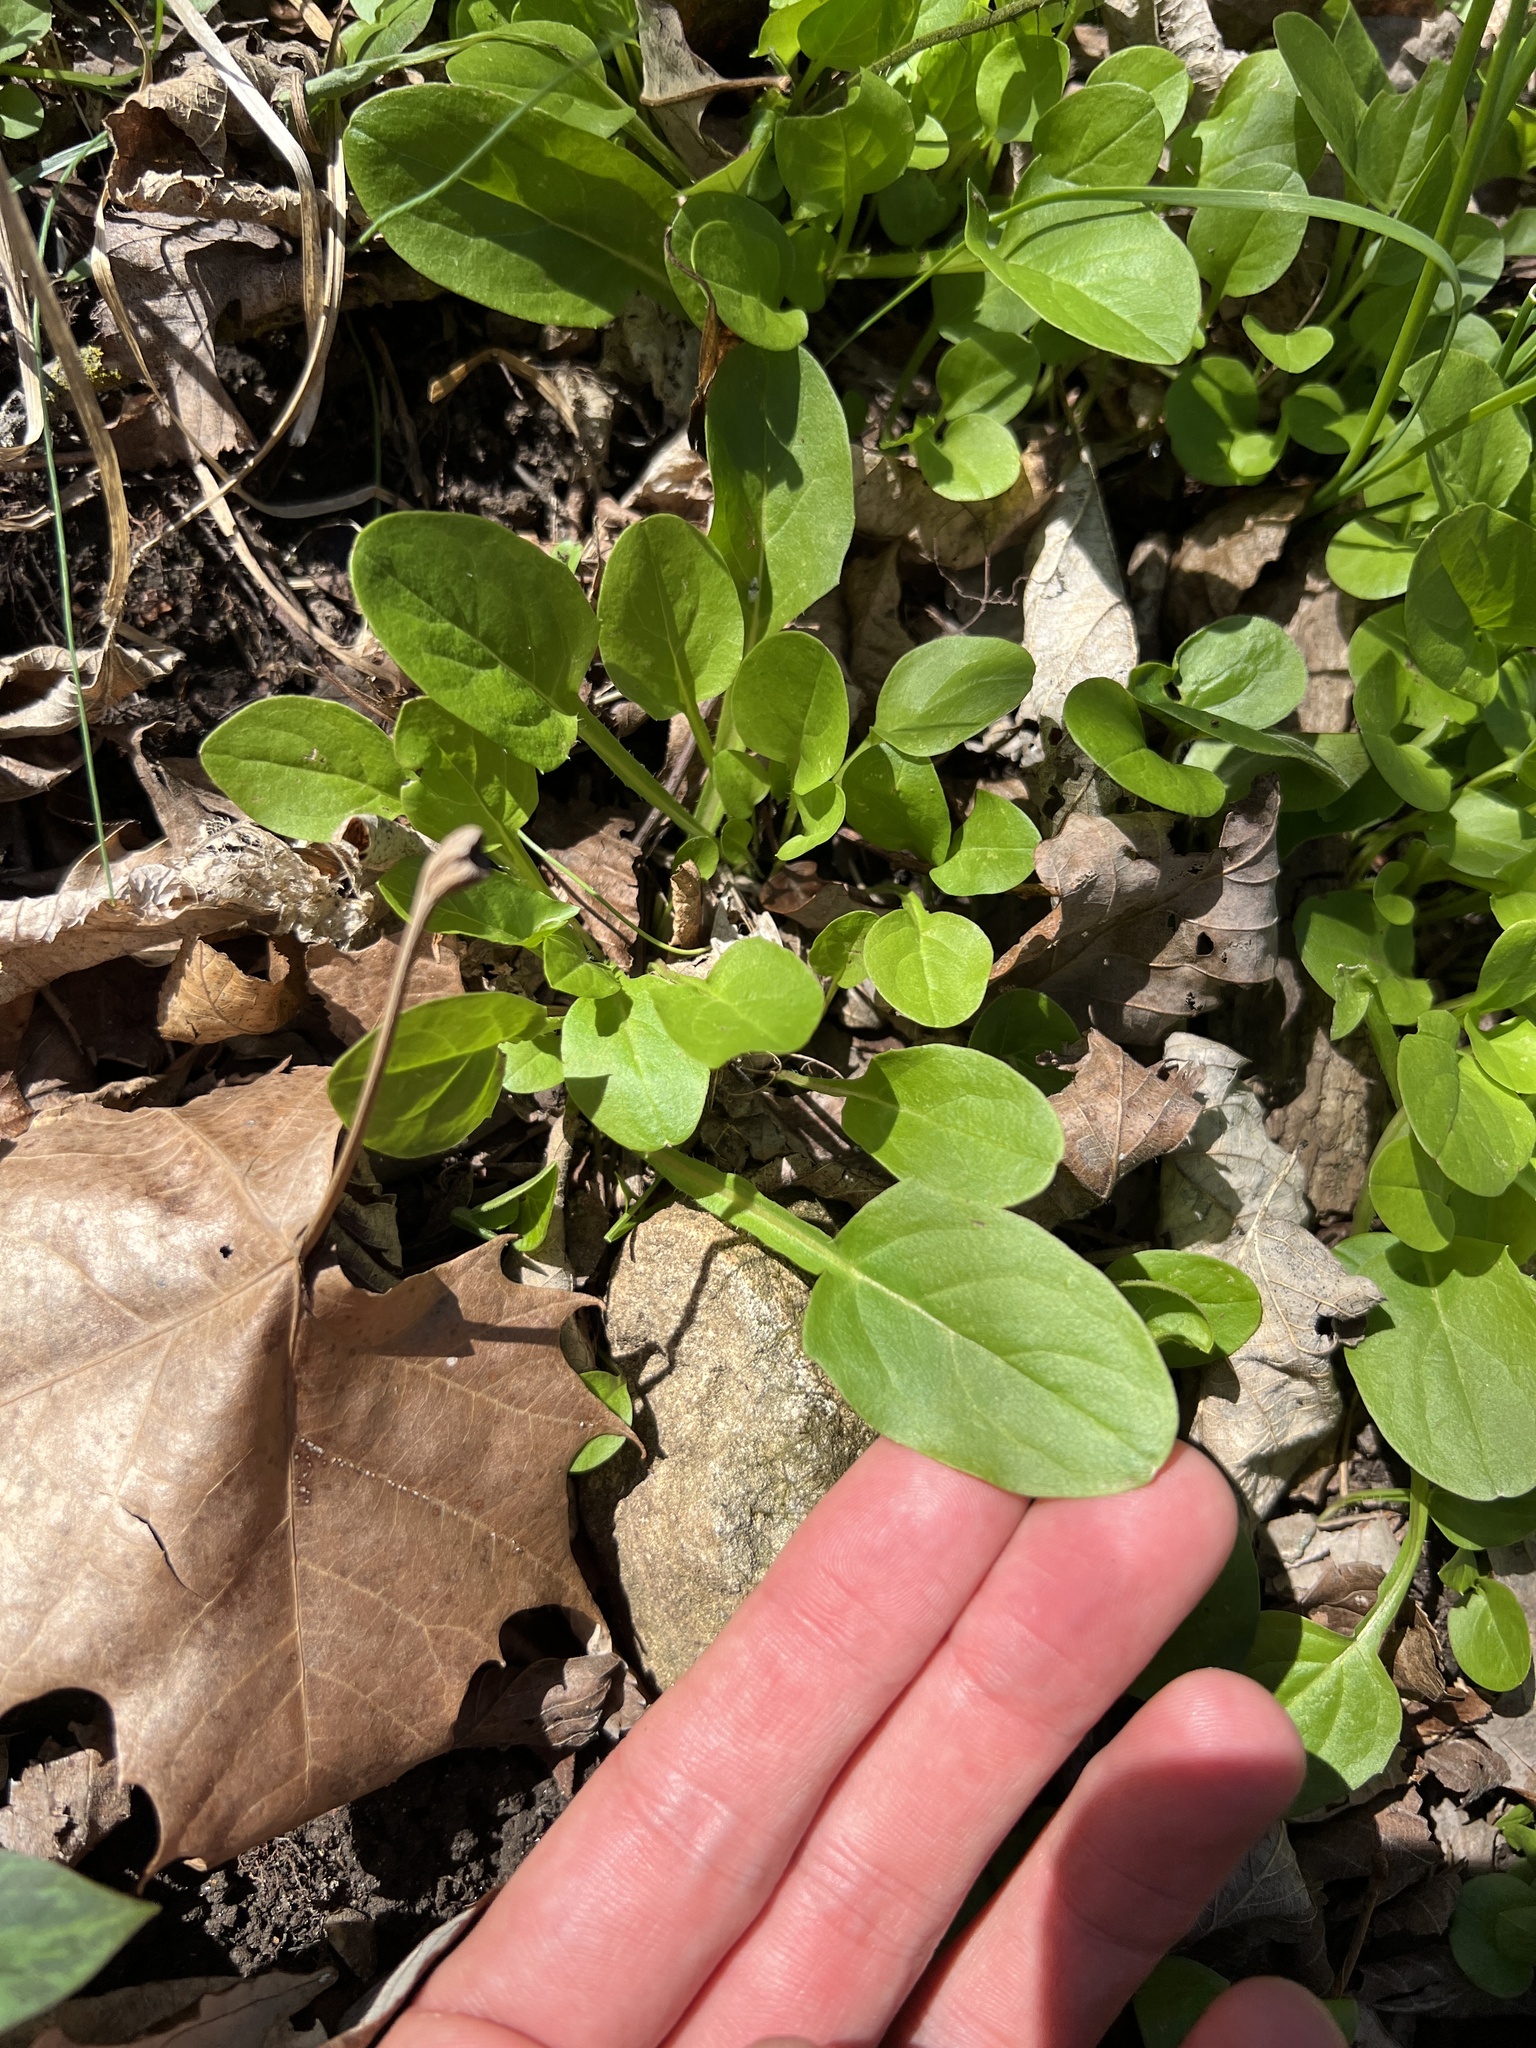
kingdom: Plantae
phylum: Tracheophyta
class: Magnoliopsida
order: Asterales
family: Asteraceae
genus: Nabalus
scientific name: Nabalus crepidineus
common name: Nodding rattlesnakeroot
